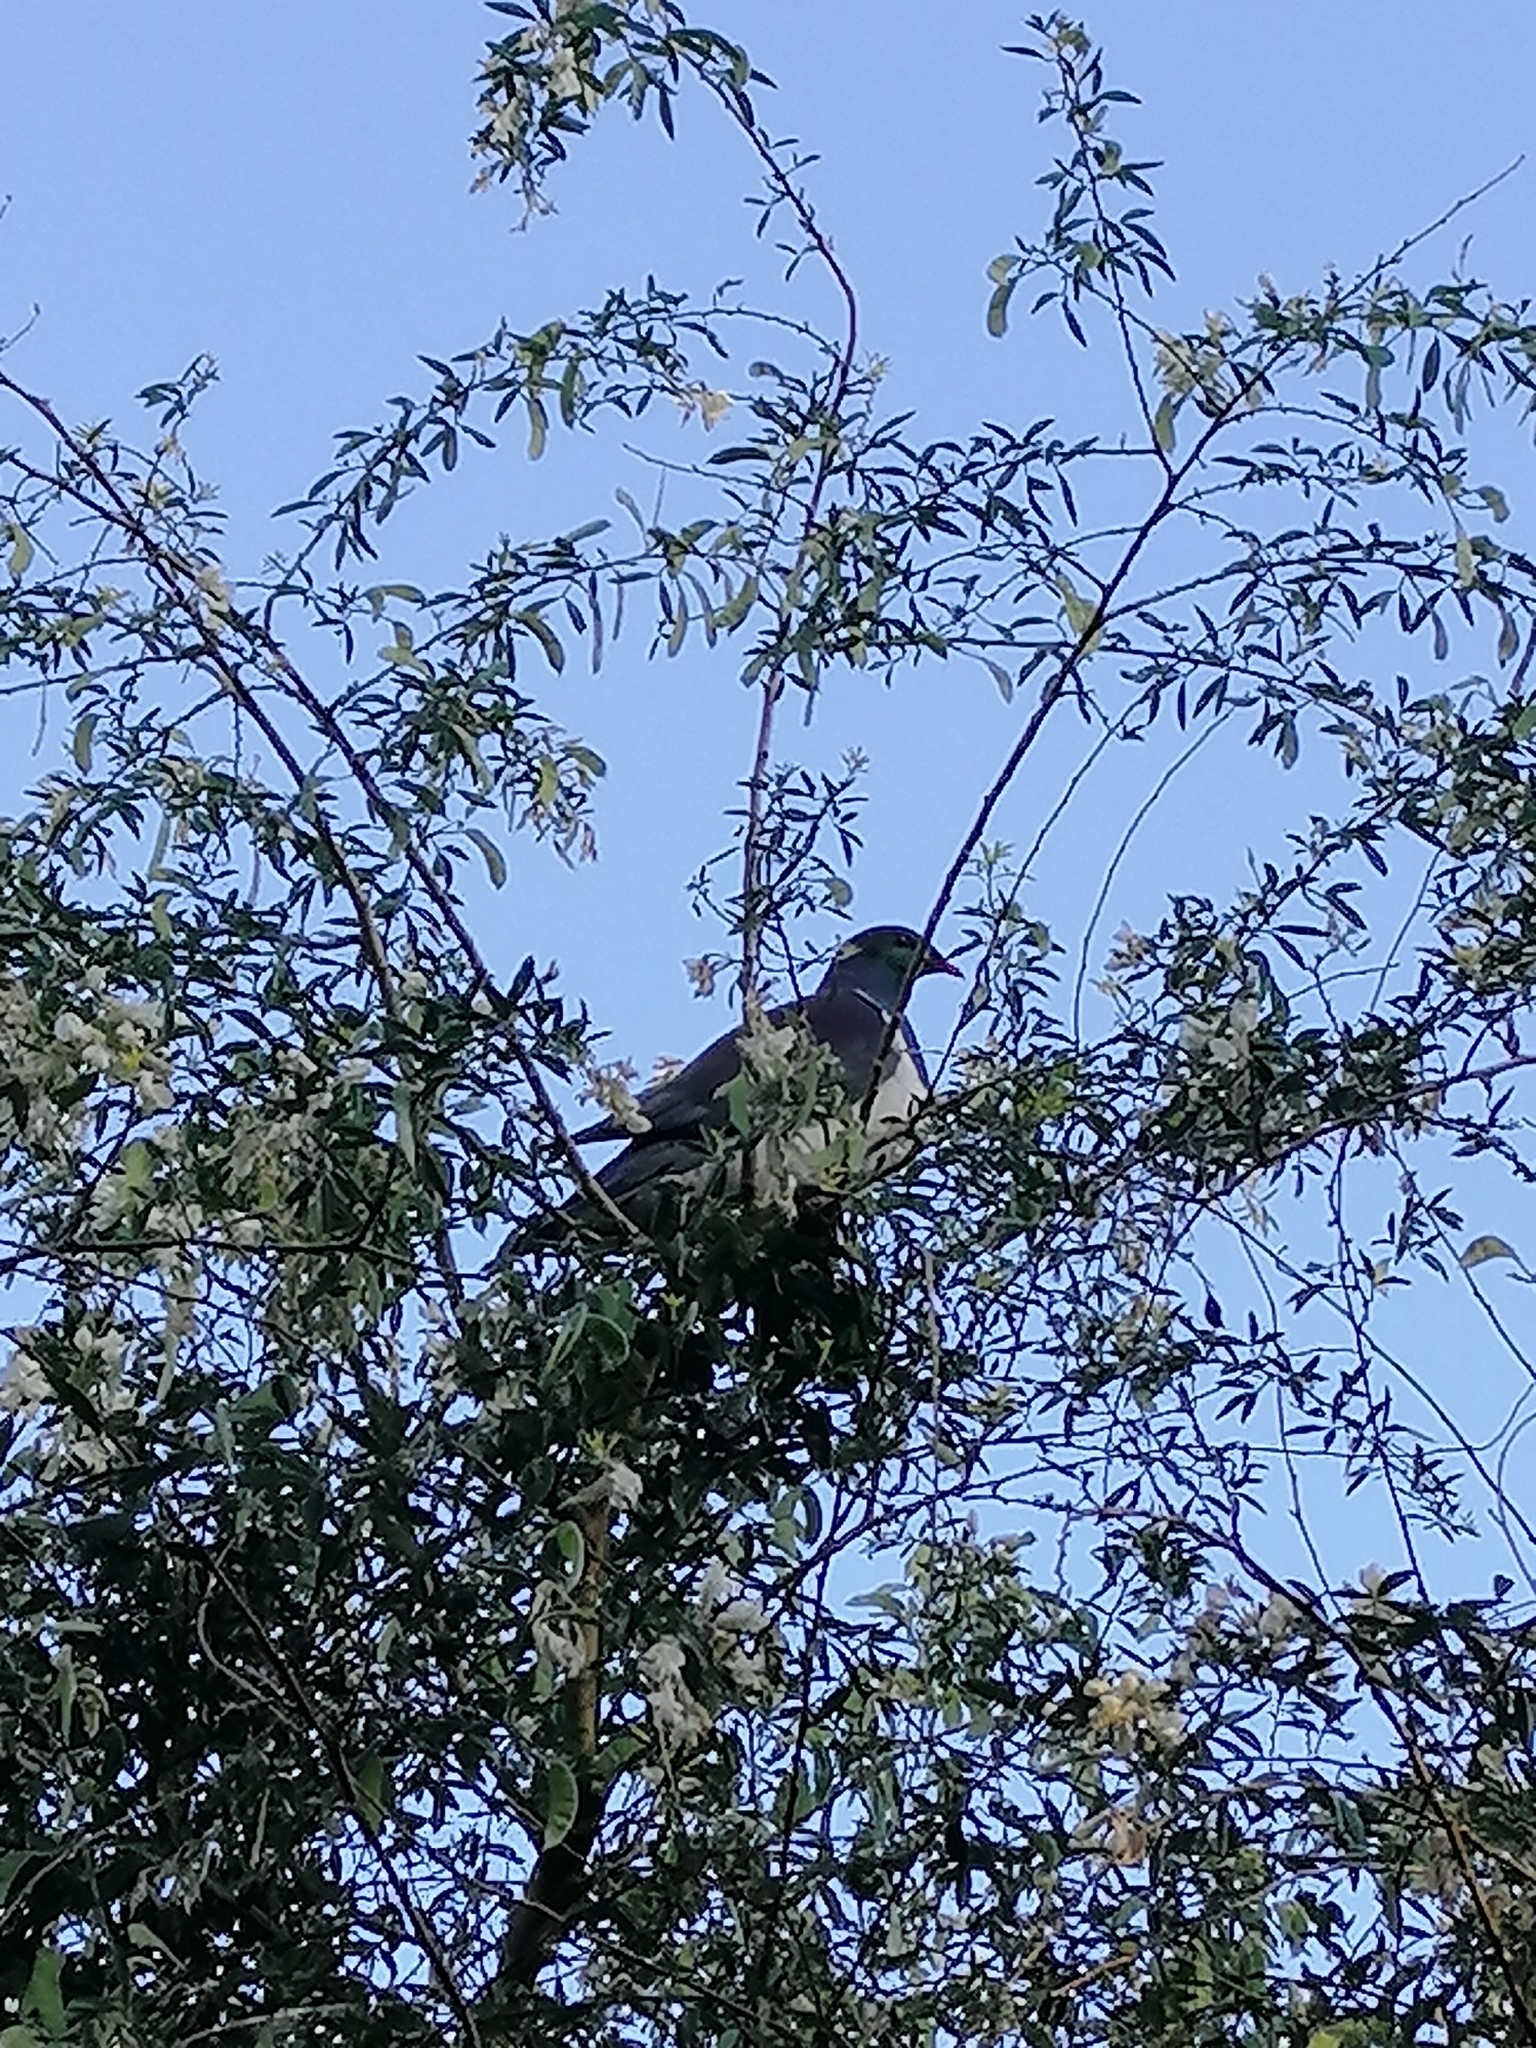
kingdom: Animalia
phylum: Chordata
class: Aves
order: Columbiformes
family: Columbidae
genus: Hemiphaga
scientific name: Hemiphaga novaeseelandiae
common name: New zealand pigeon
